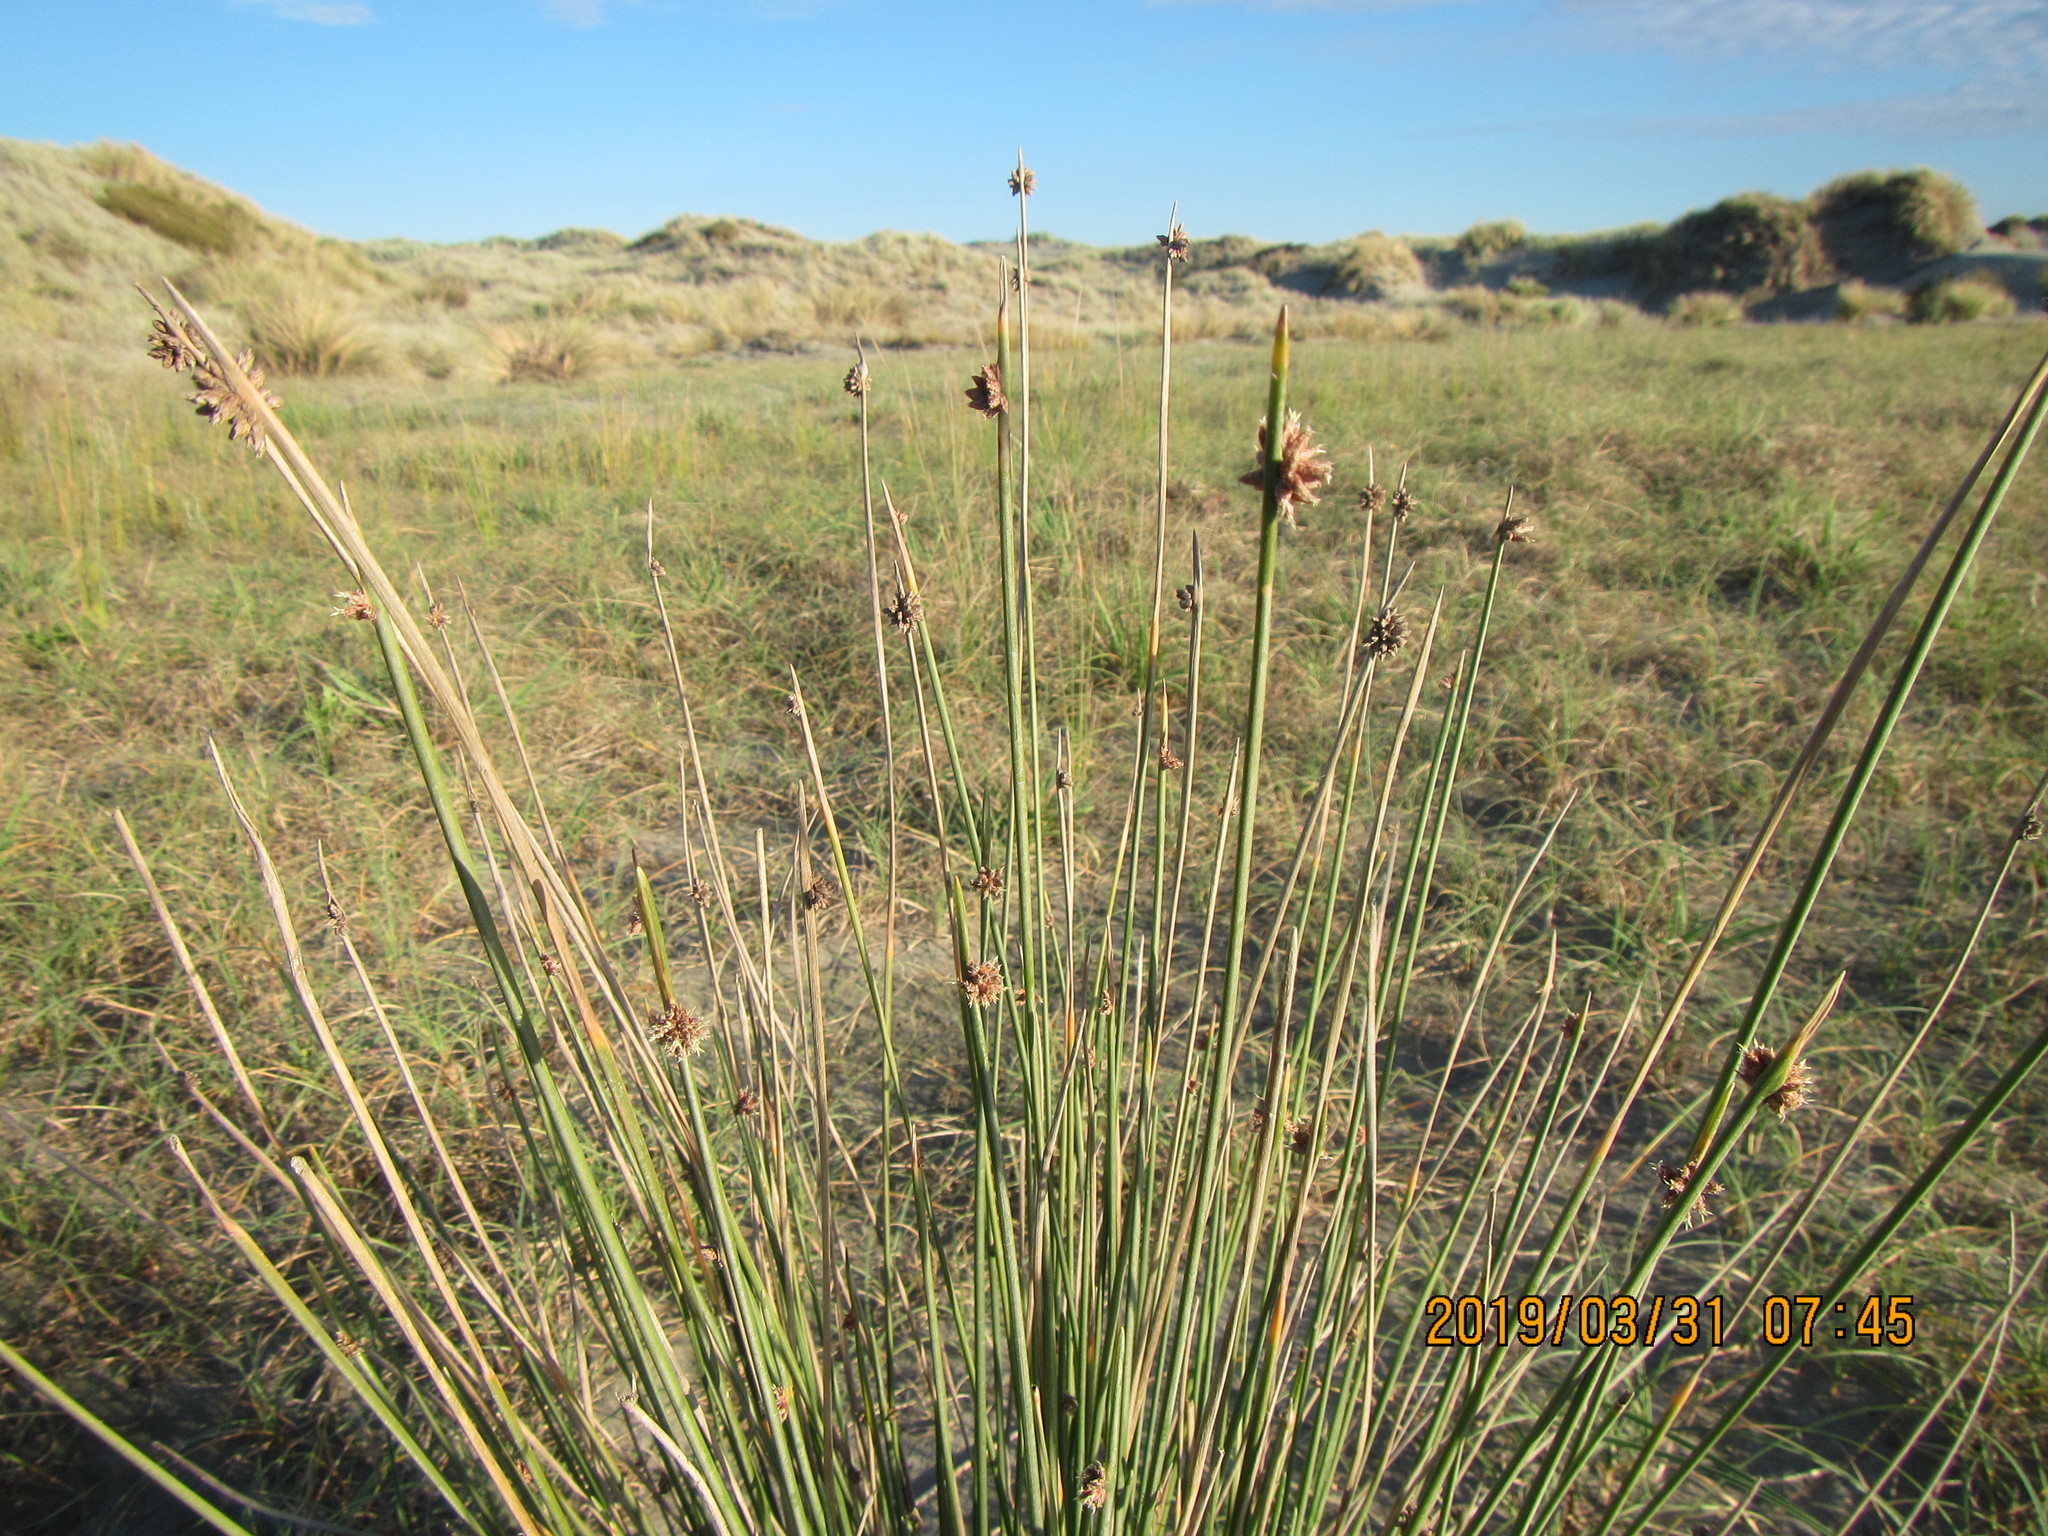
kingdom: Plantae
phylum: Tracheophyta
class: Liliopsida
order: Poales
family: Cyperaceae
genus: Ficinia
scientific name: Ficinia nodosa
